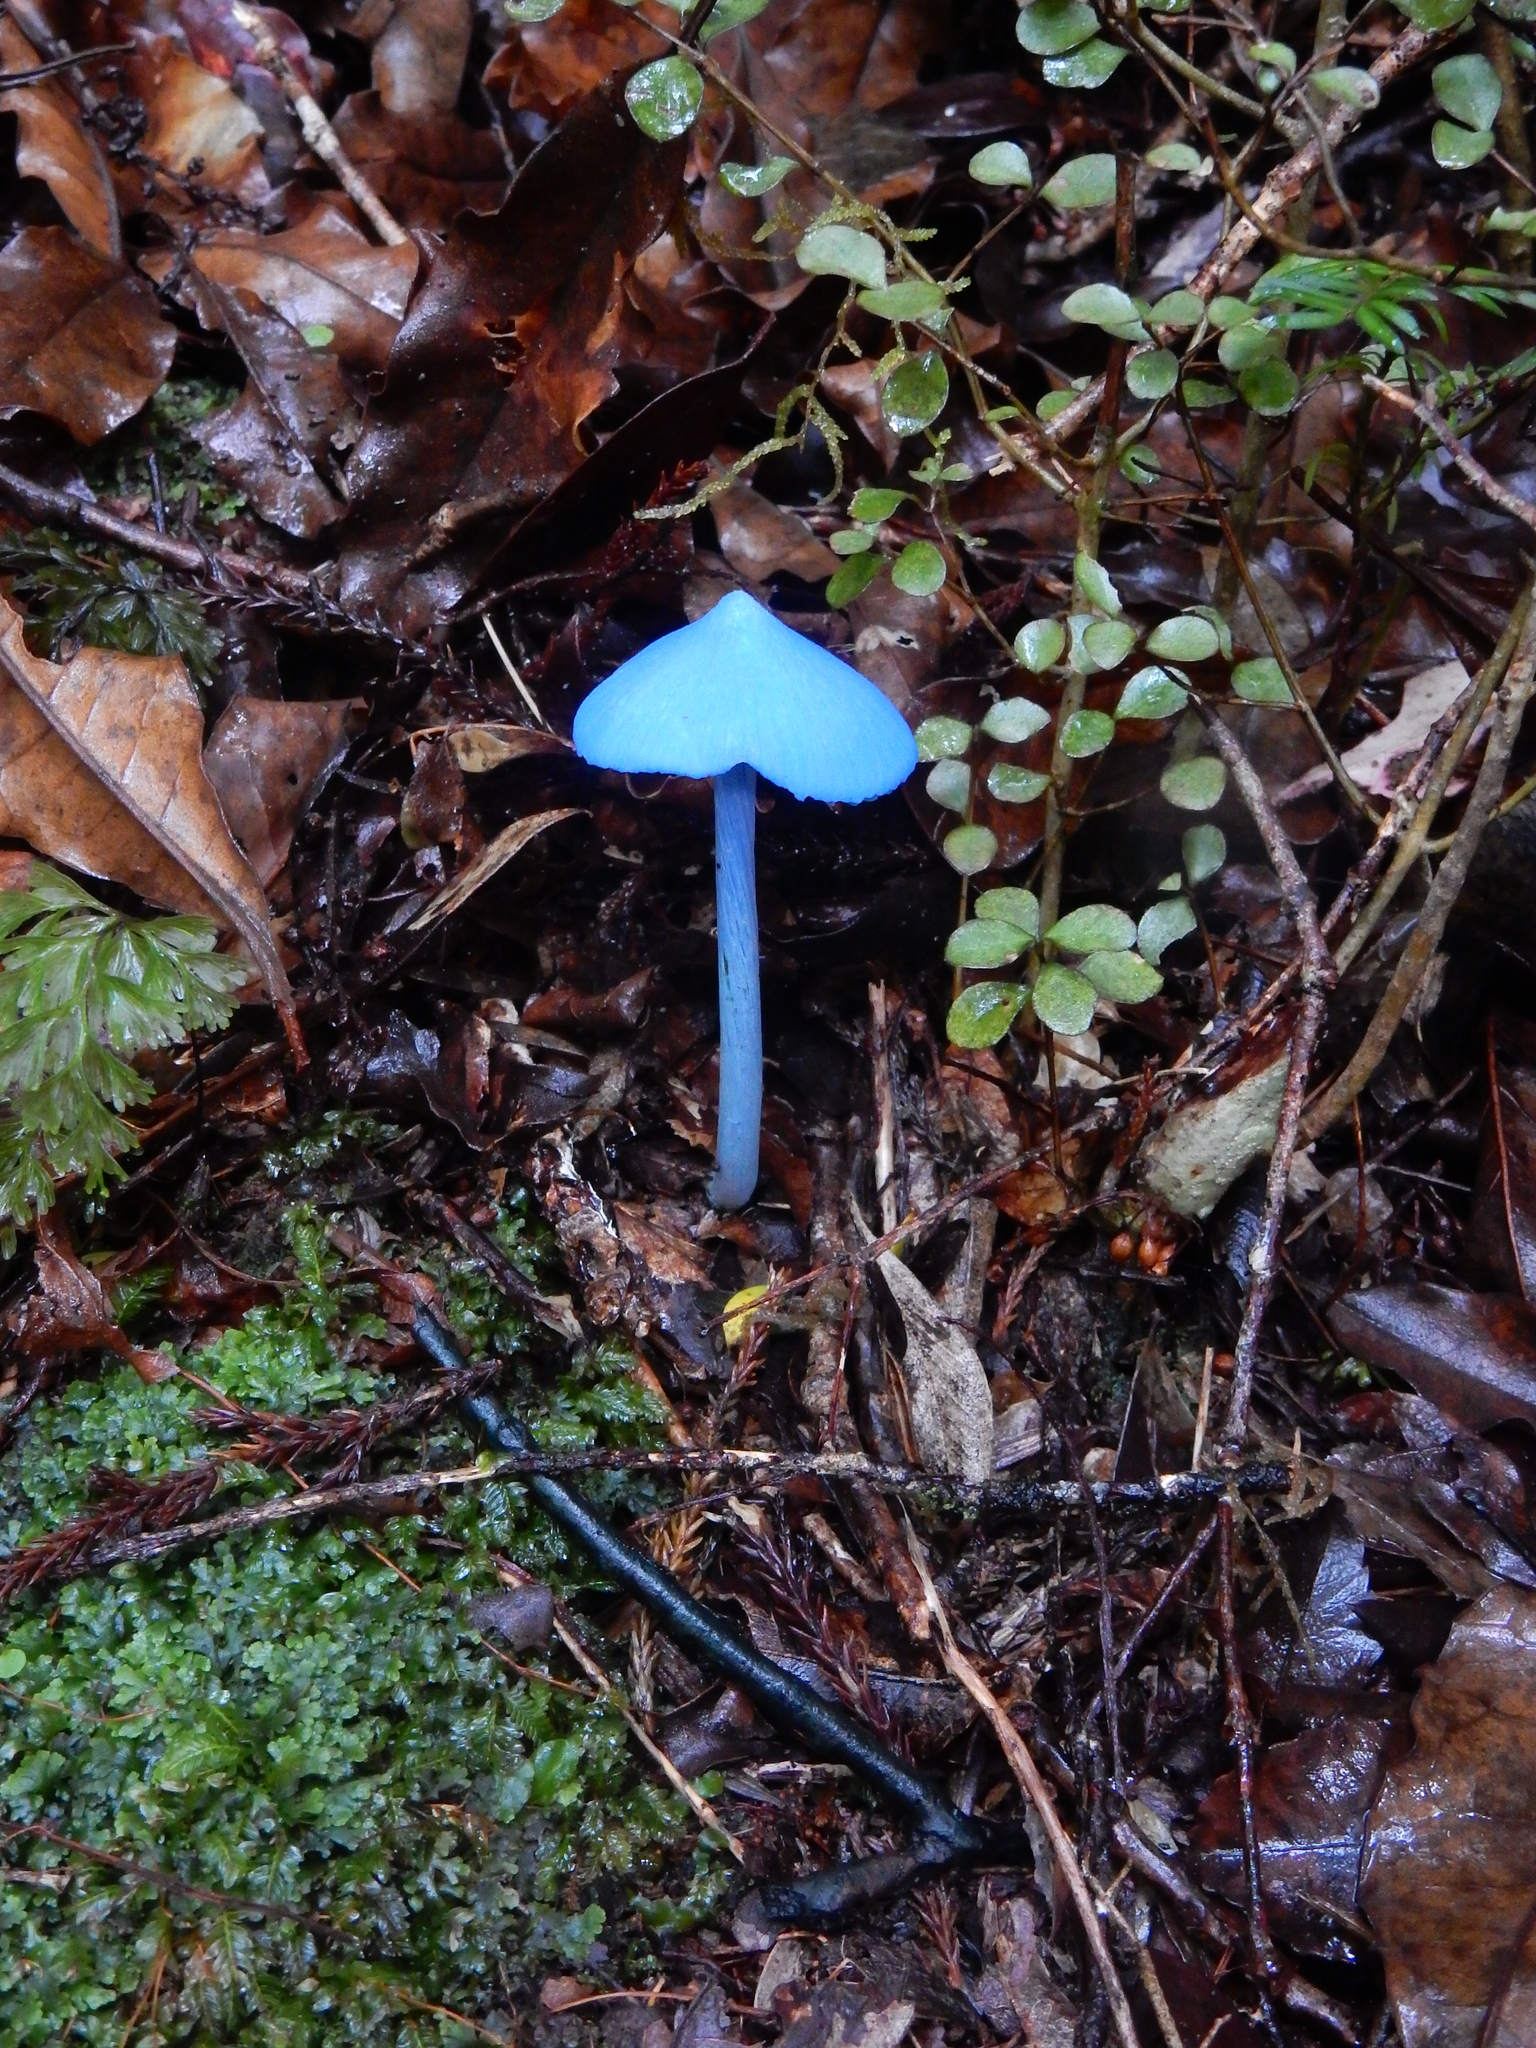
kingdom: Fungi
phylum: Basidiomycota
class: Agaricomycetes
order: Agaricales
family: Entolomataceae
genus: Entoloma
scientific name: Entoloma hochstetteri
